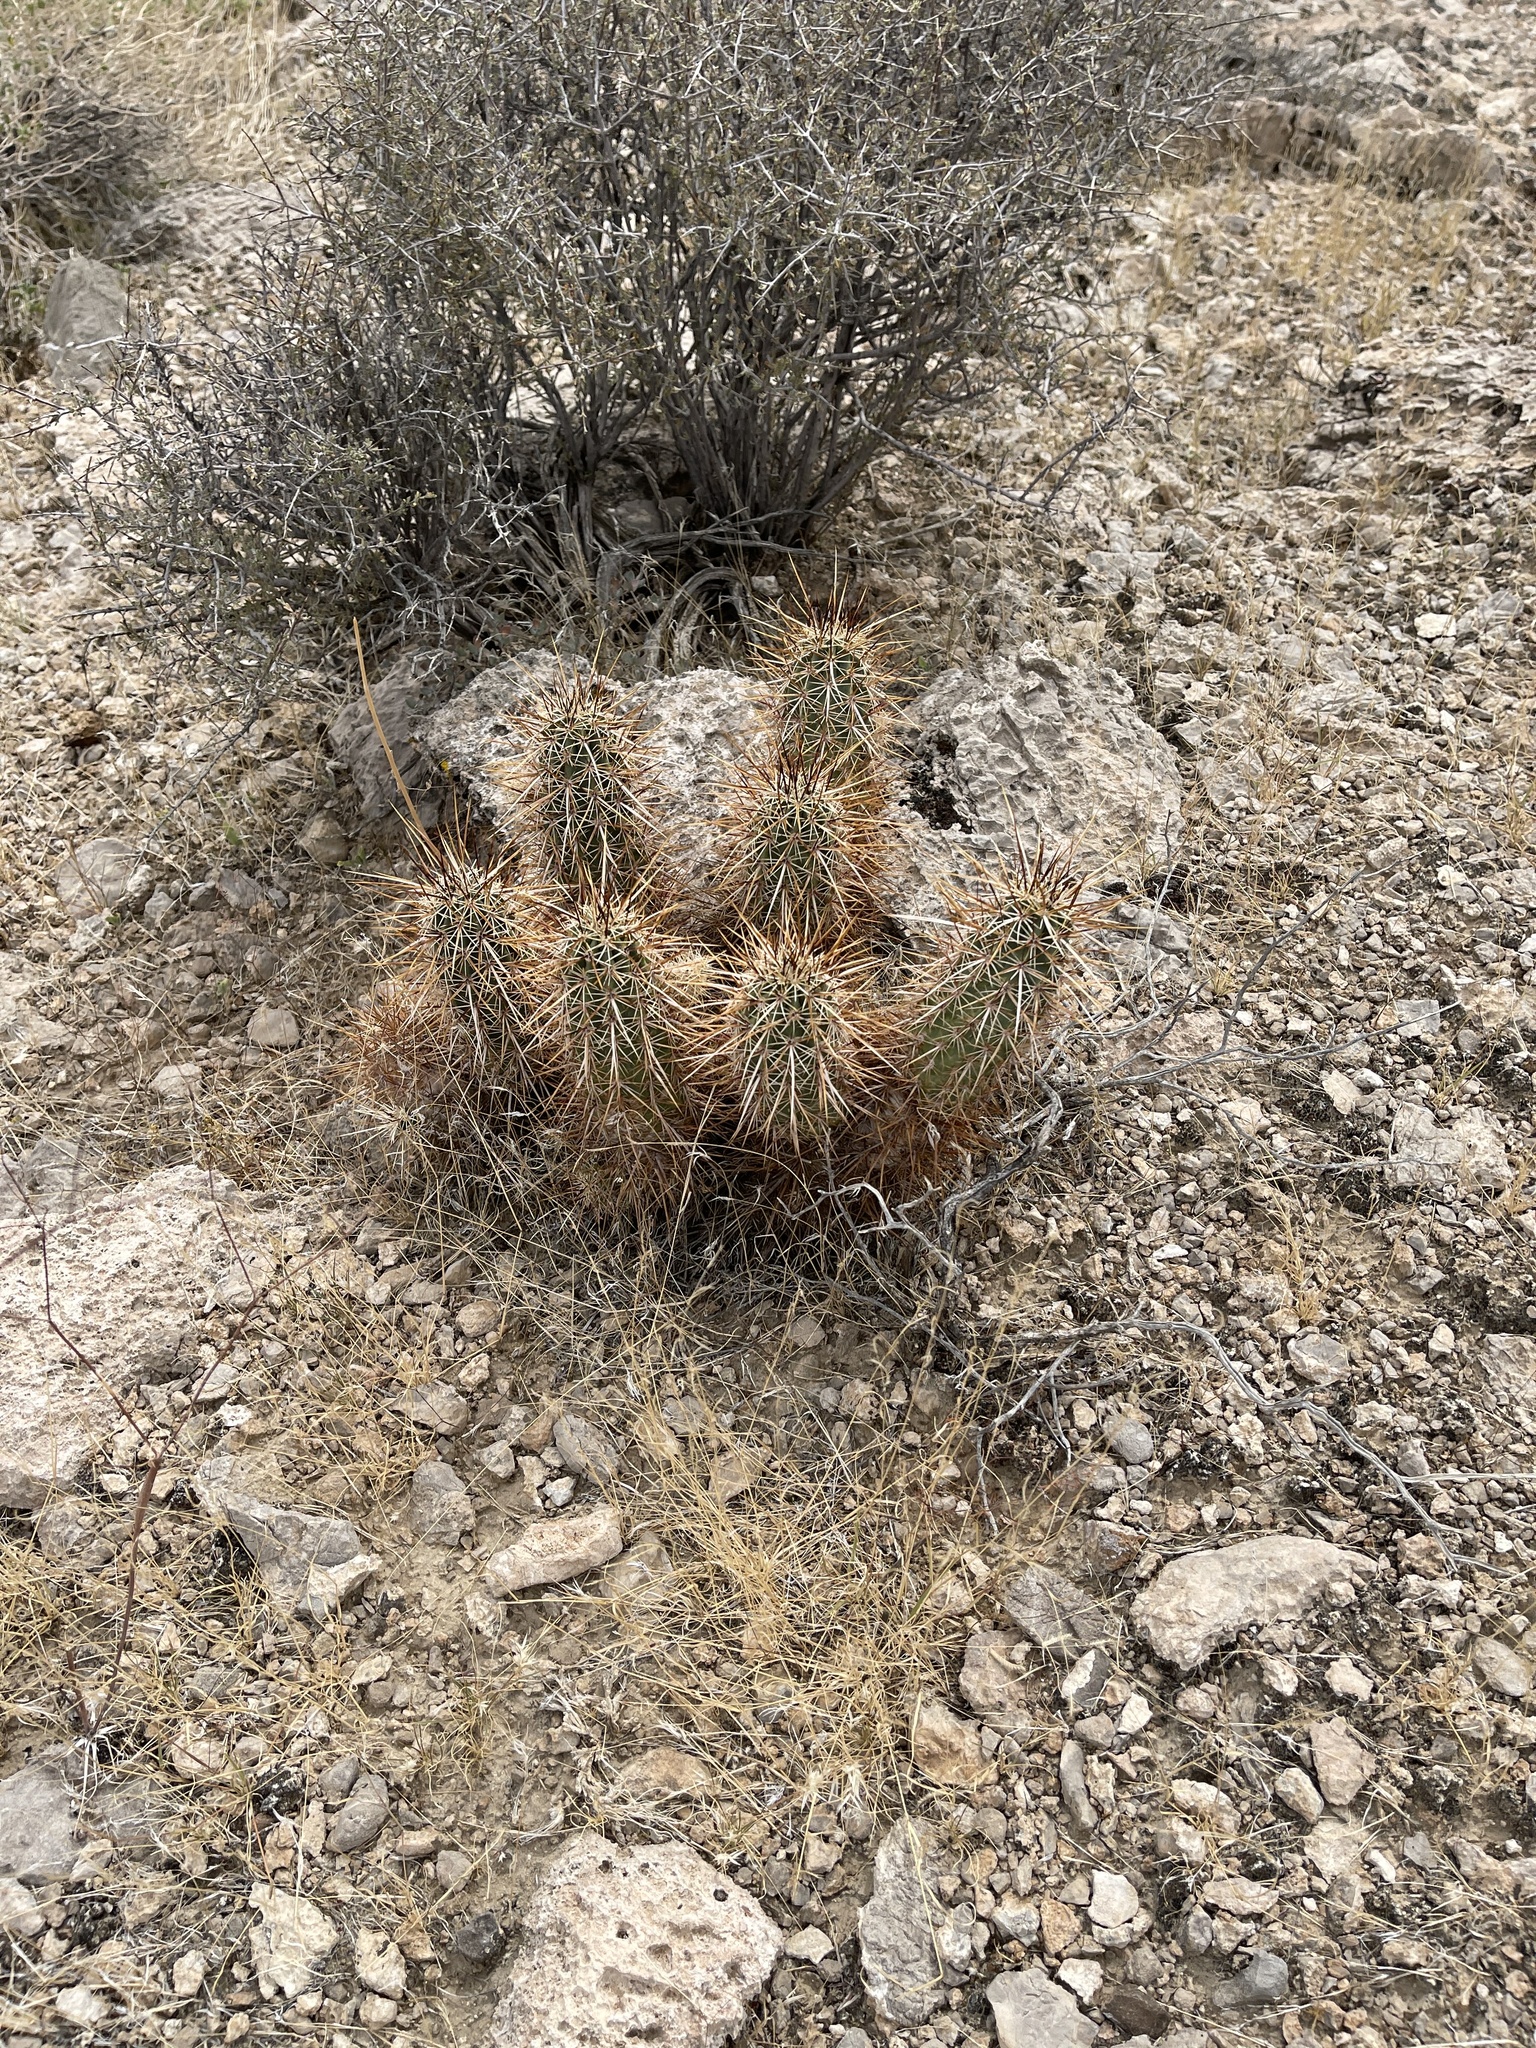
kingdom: Plantae
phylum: Tracheophyta
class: Magnoliopsida
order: Caryophyllales
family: Cactaceae
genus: Echinocereus
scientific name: Echinocereus engelmannii
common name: Engelmann's hedgehog cactus
